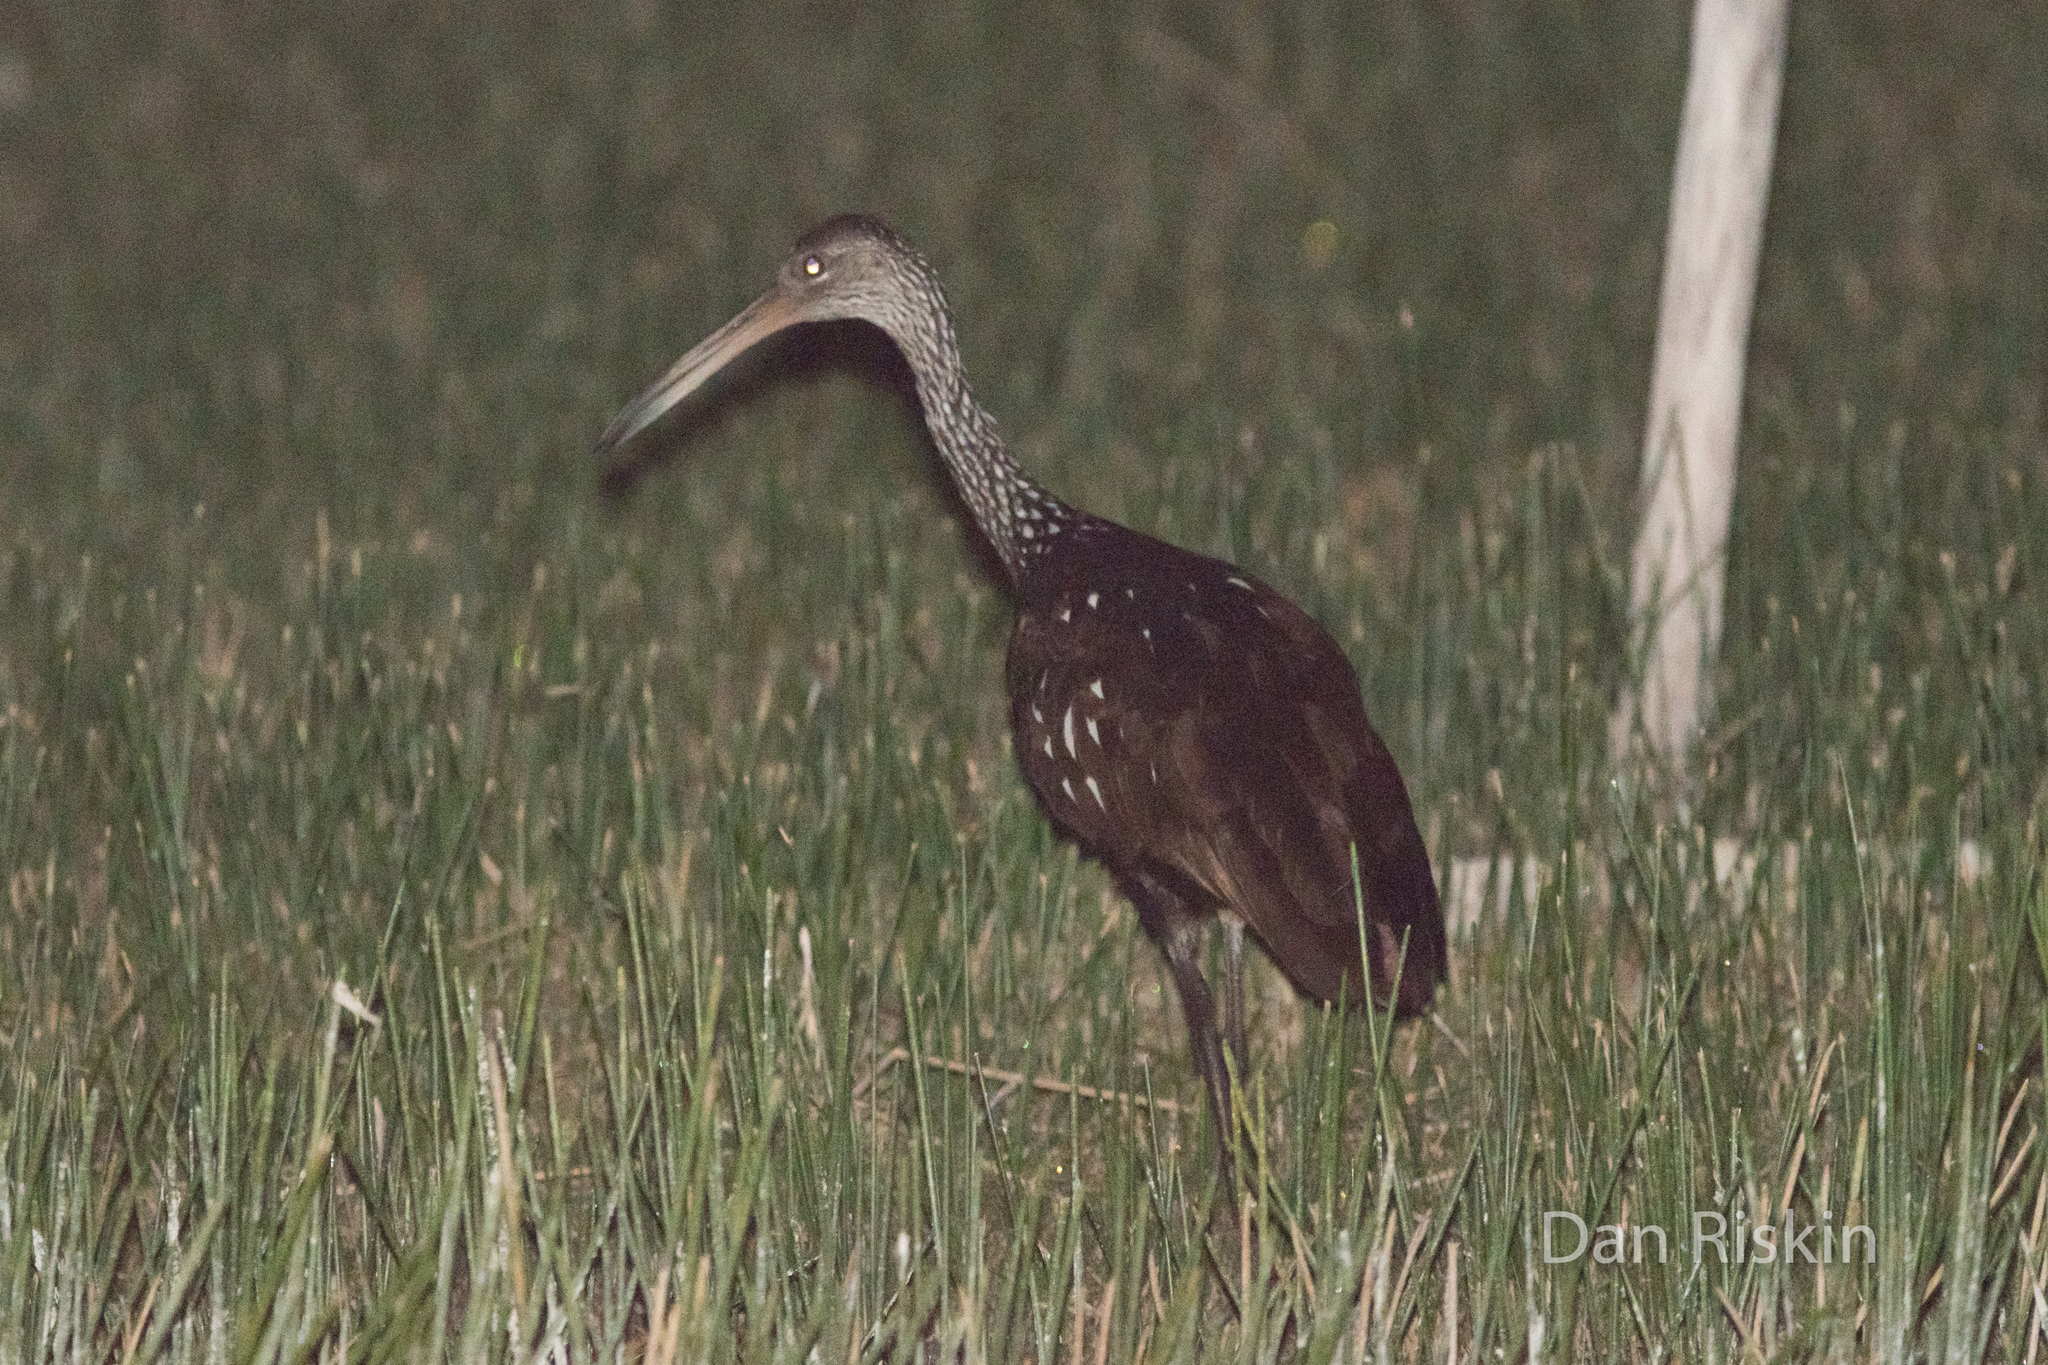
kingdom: Animalia
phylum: Chordata
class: Aves
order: Gruiformes
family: Aramidae
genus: Aramus
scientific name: Aramus guarauna
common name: Limpkin
